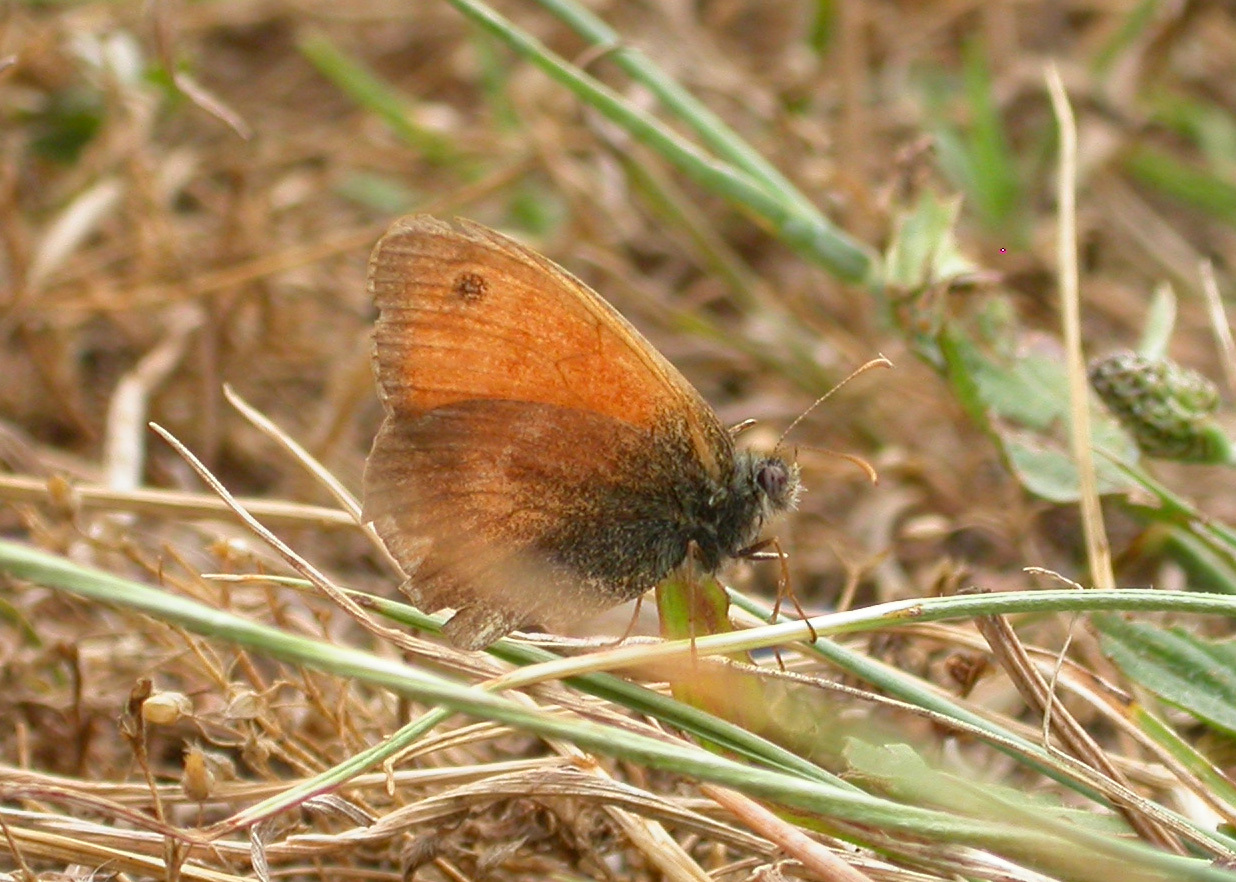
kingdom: Animalia
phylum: Arthropoda
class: Insecta
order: Lepidoptera
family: Nymphalidae
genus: Coenonympha
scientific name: Coenonympha pamphilus
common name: Small heath
